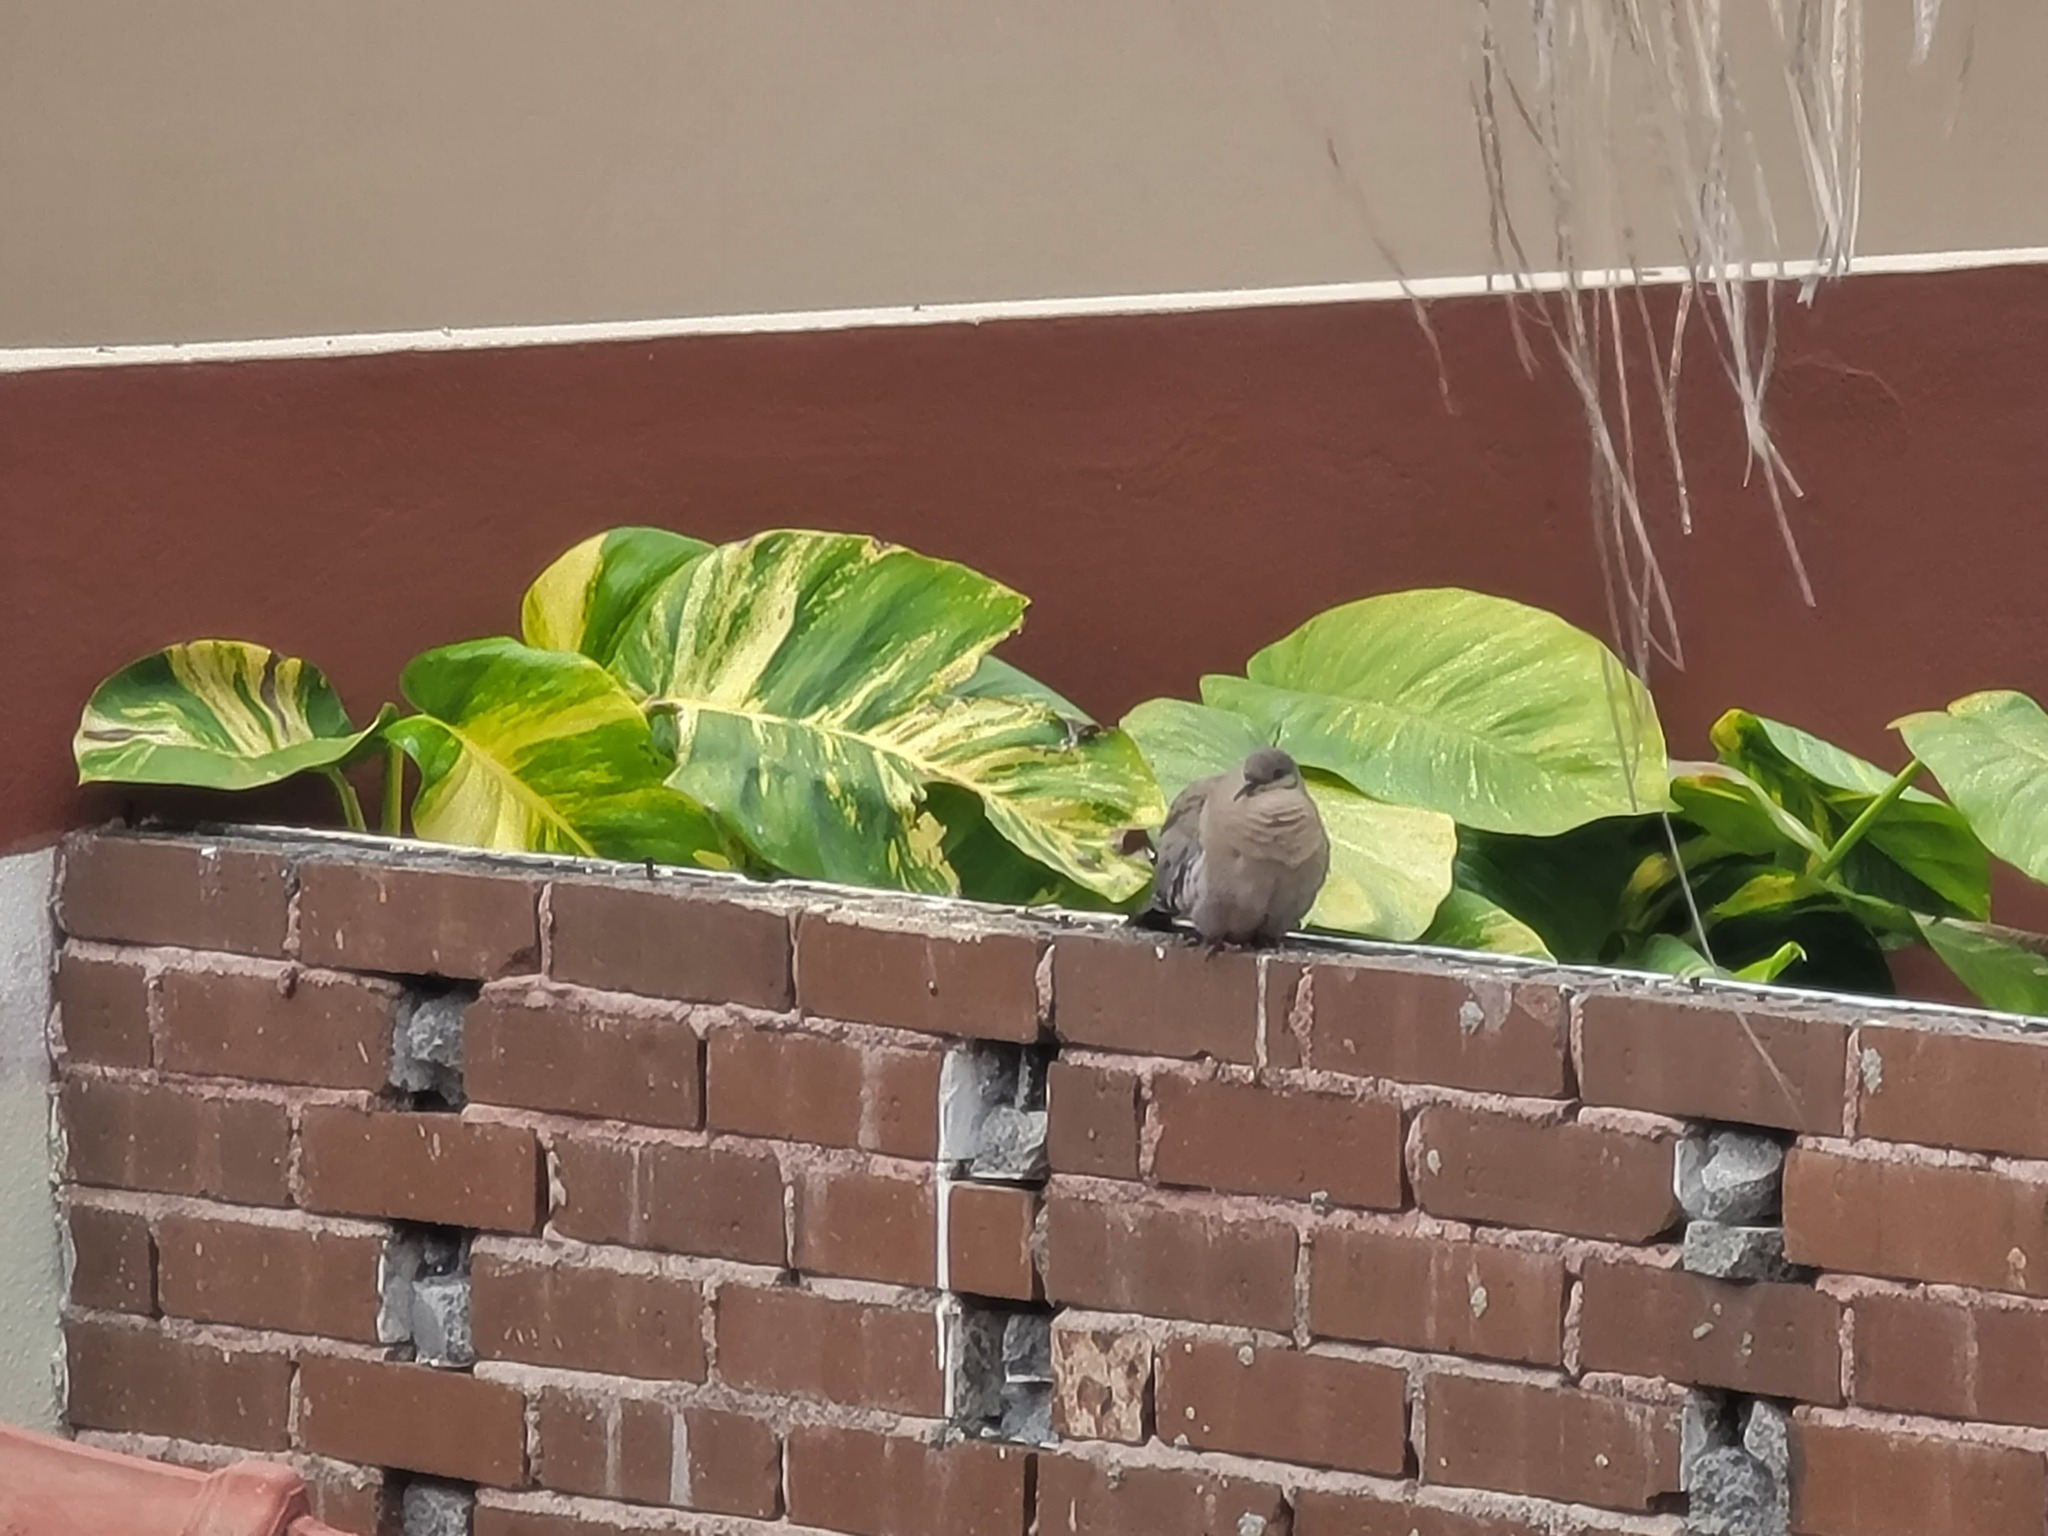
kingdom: Animalia
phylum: Chordata
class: Aves
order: Columbiformes
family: Columbidae
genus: Zenaida
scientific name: Zenaida asiatica
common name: White-winged dove
